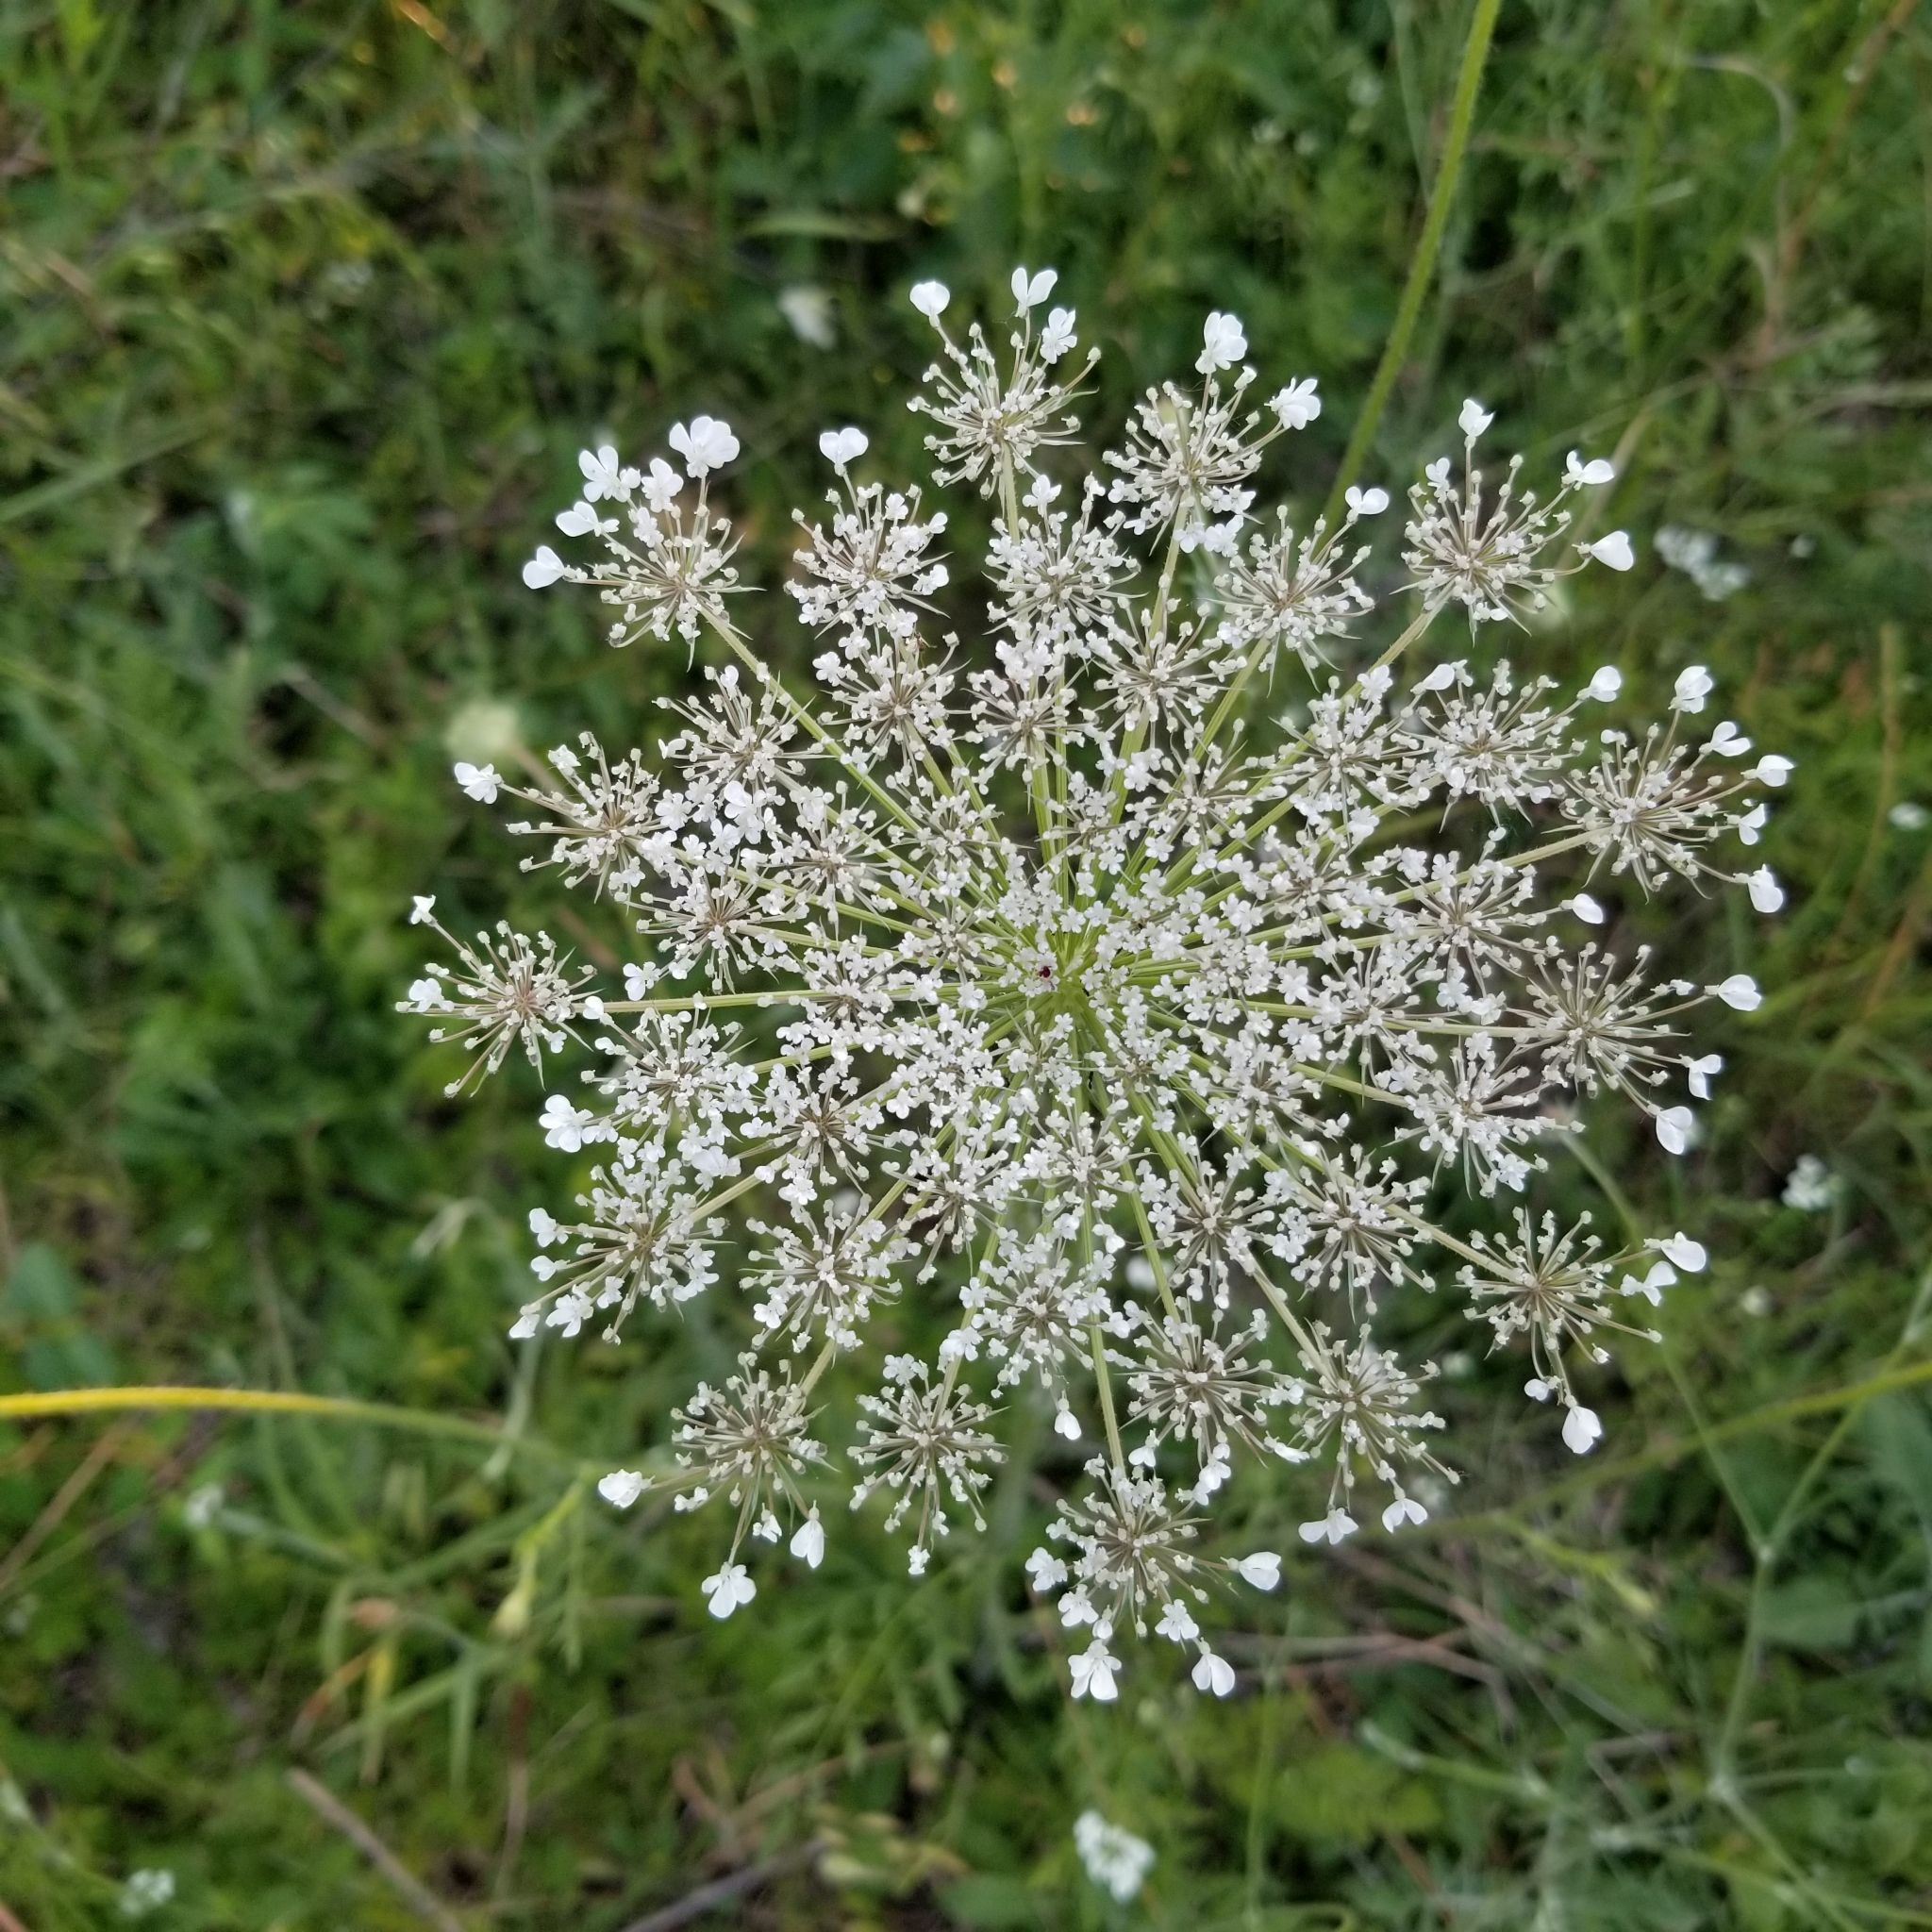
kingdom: Plantae
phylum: Tracheophyta
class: Magnoliopsida
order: Apiales
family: Apiaceae
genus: Daucus
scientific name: Daucus carota
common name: Wild carrot
